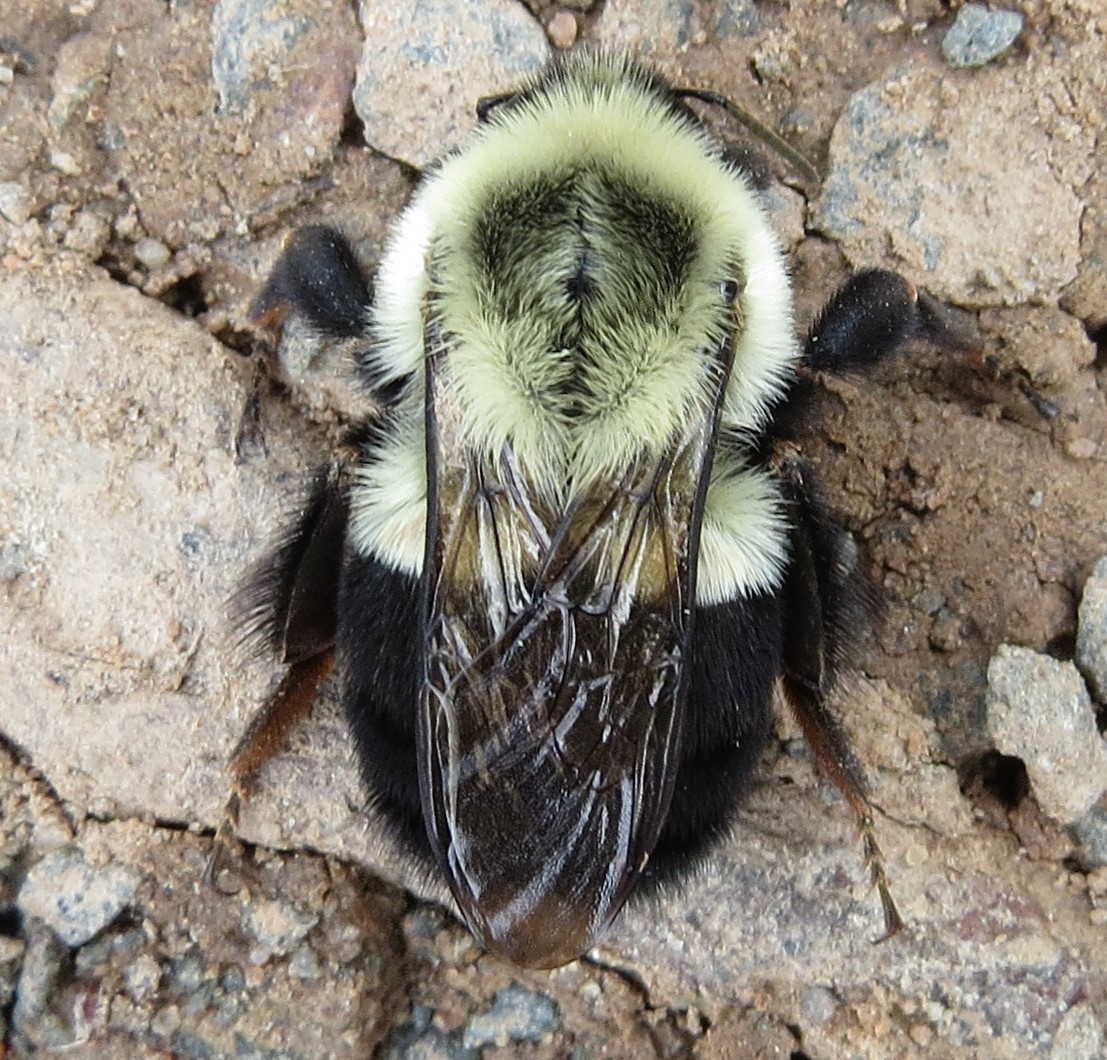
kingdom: Animalia
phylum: Arthropoda
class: Insecta
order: Hymenoptera
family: Apidae
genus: Bombus
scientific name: Bombus impatiens
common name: Common eastern bumble bee
